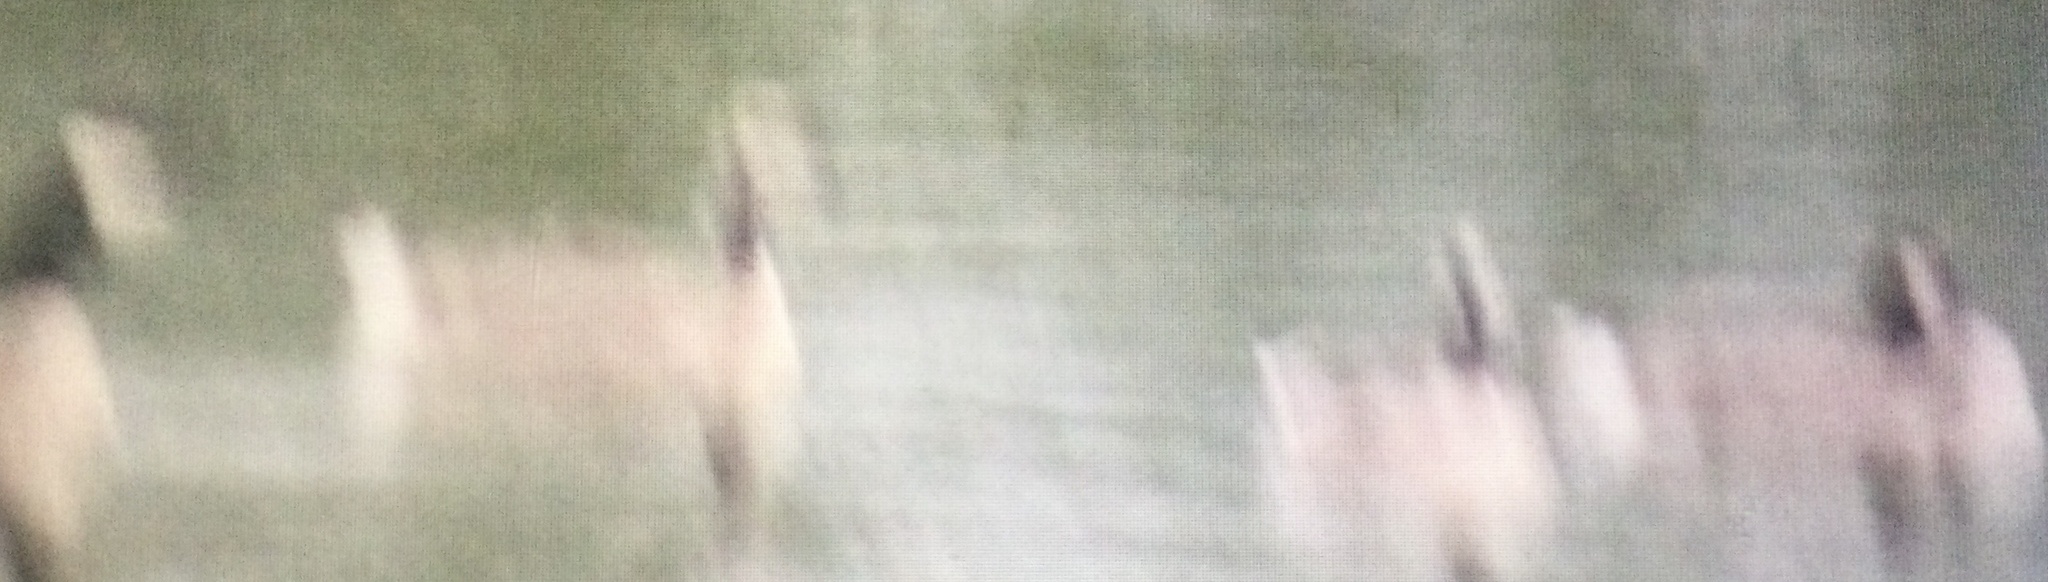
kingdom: Animalia
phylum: Chordata
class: Aves
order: Anseriformes
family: Anatidae
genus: Branta
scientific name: Branta canadensis
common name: Canada goose
